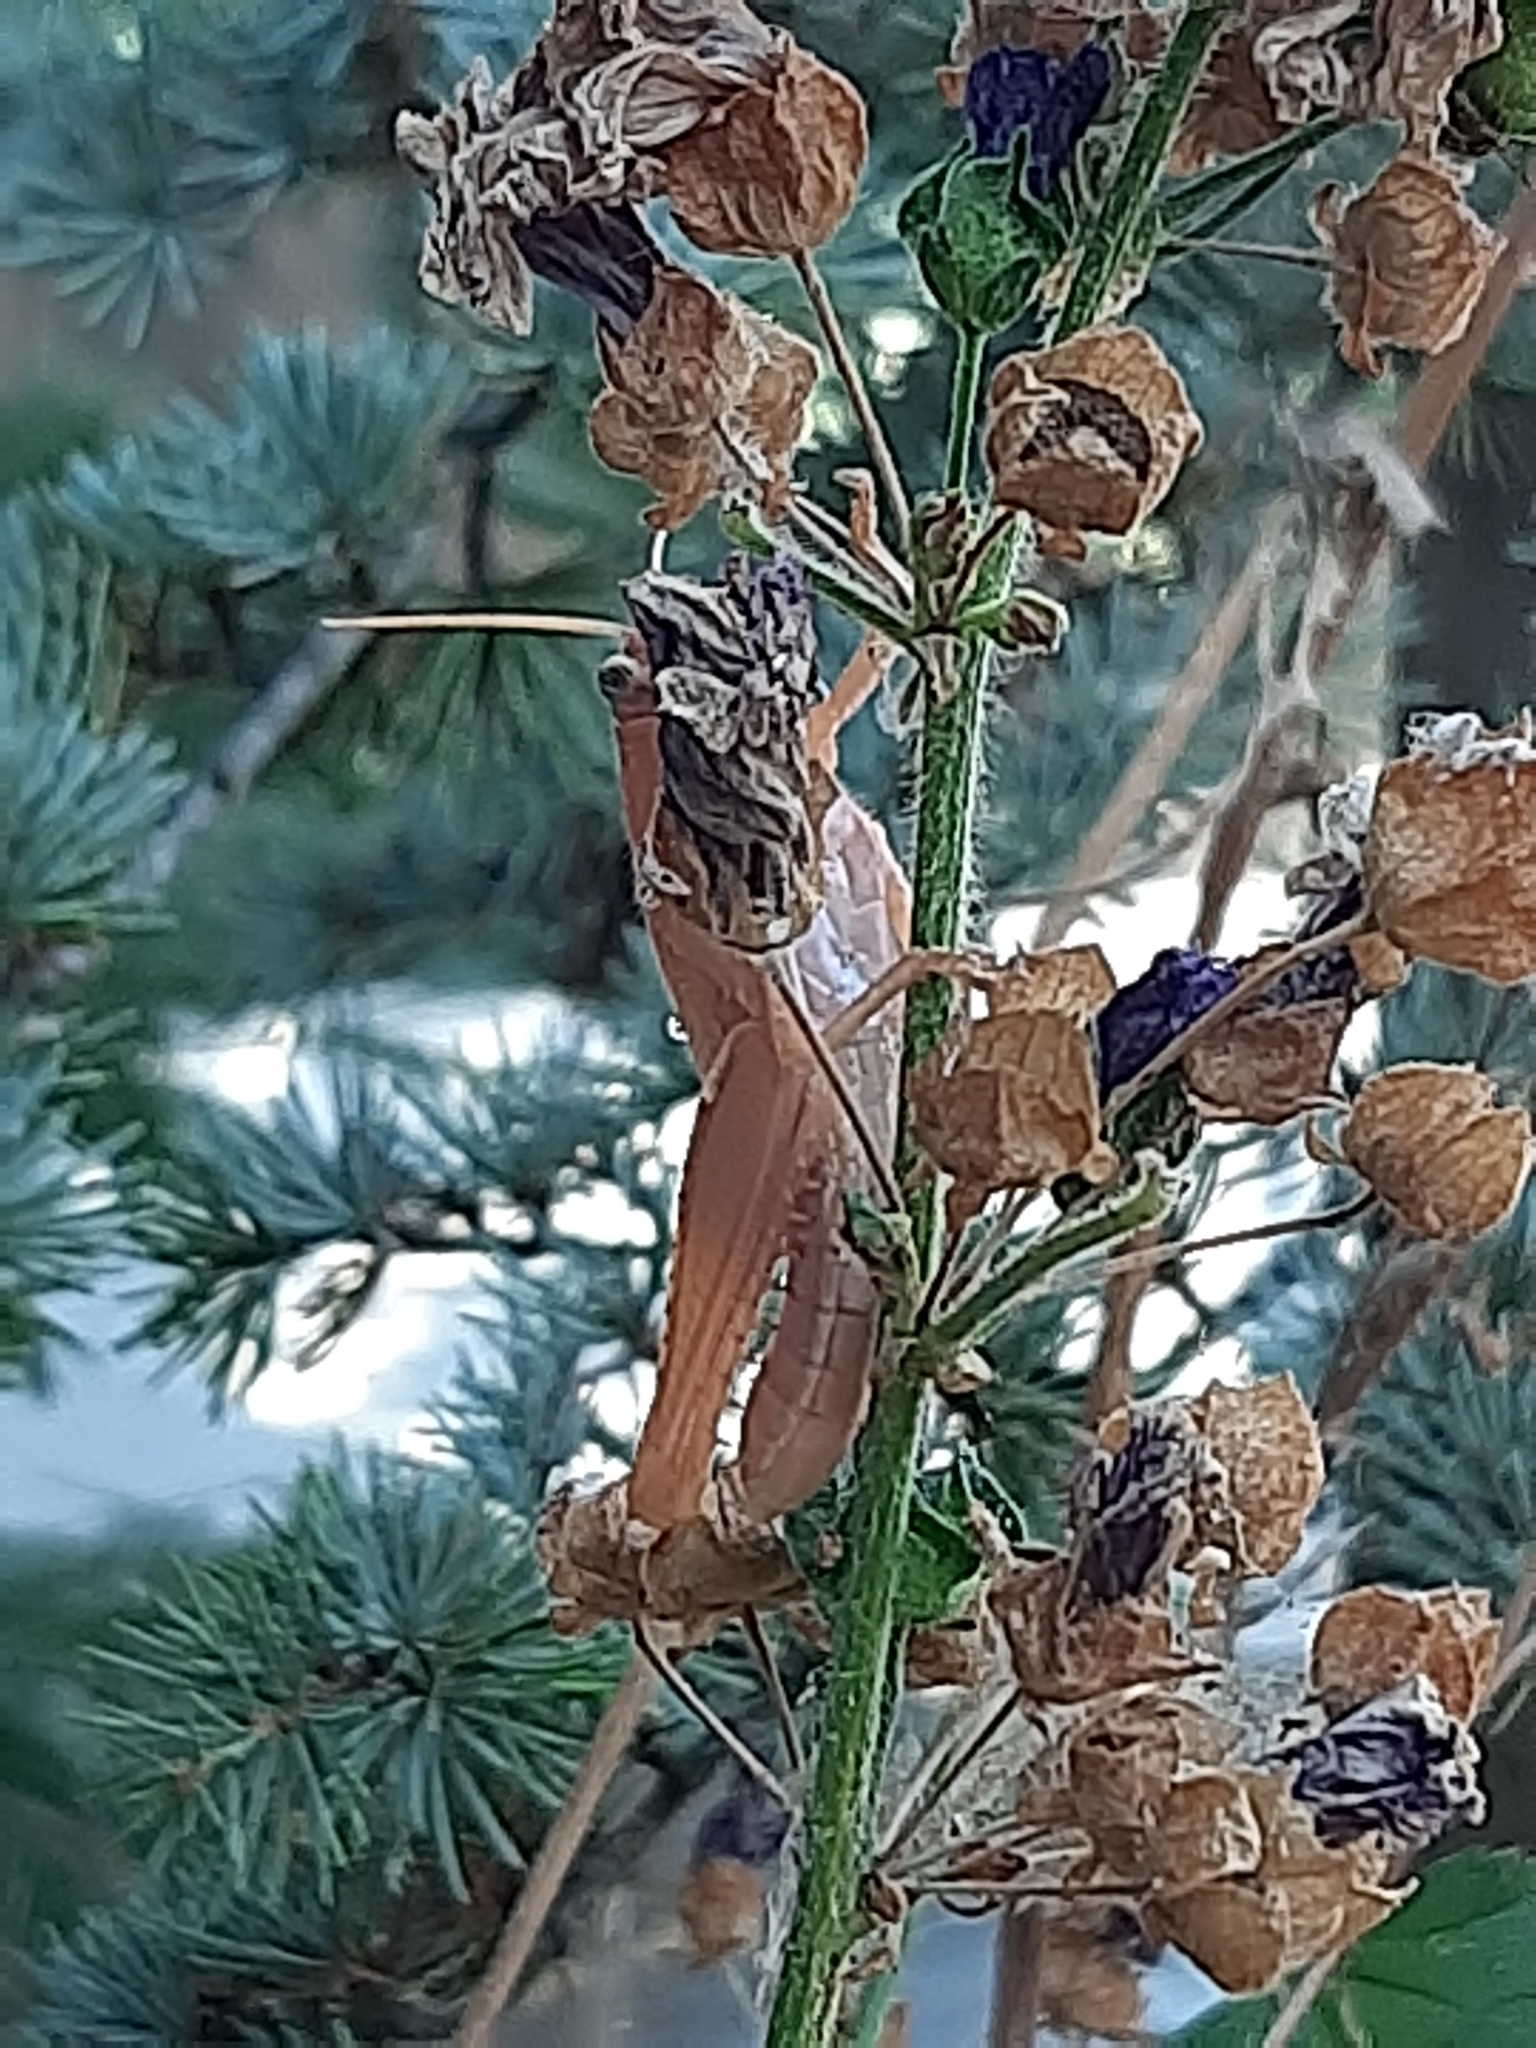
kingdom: Animalia
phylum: Arthropoda
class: Insecta
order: Orthoptera
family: Acrididae
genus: Anacridium
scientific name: Anacridium aegyptium
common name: Egyptian grasshopper
